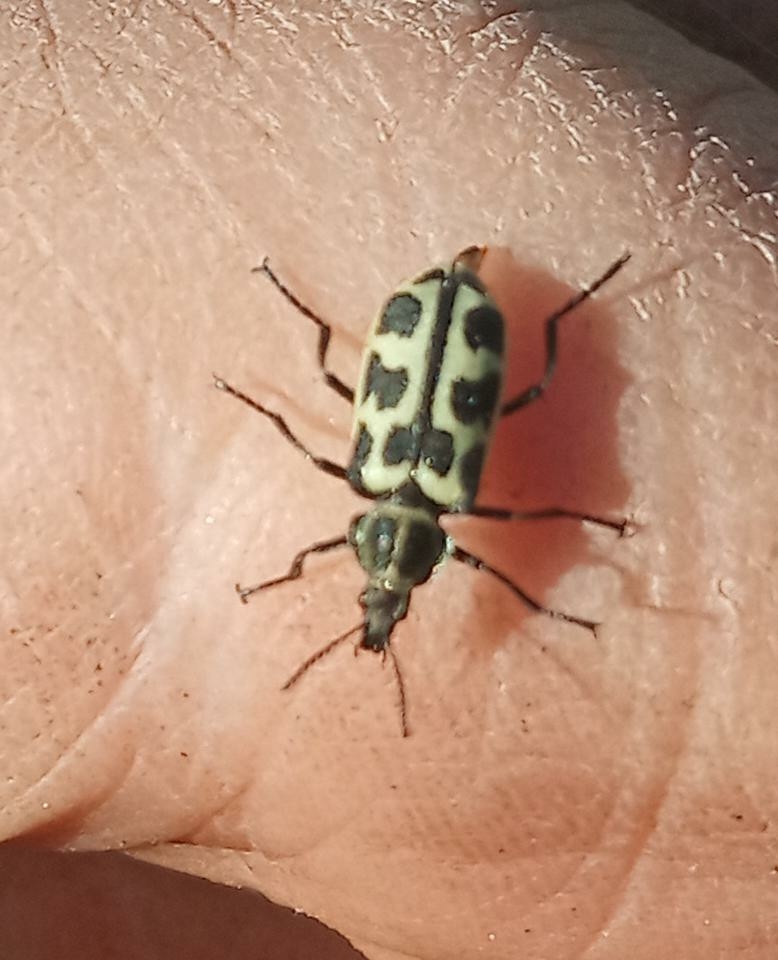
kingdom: Animalia
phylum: Arthropoda
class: Insecta
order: Coleoptera
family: Melyridae
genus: Astylus
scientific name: Astylus atromaculatus
